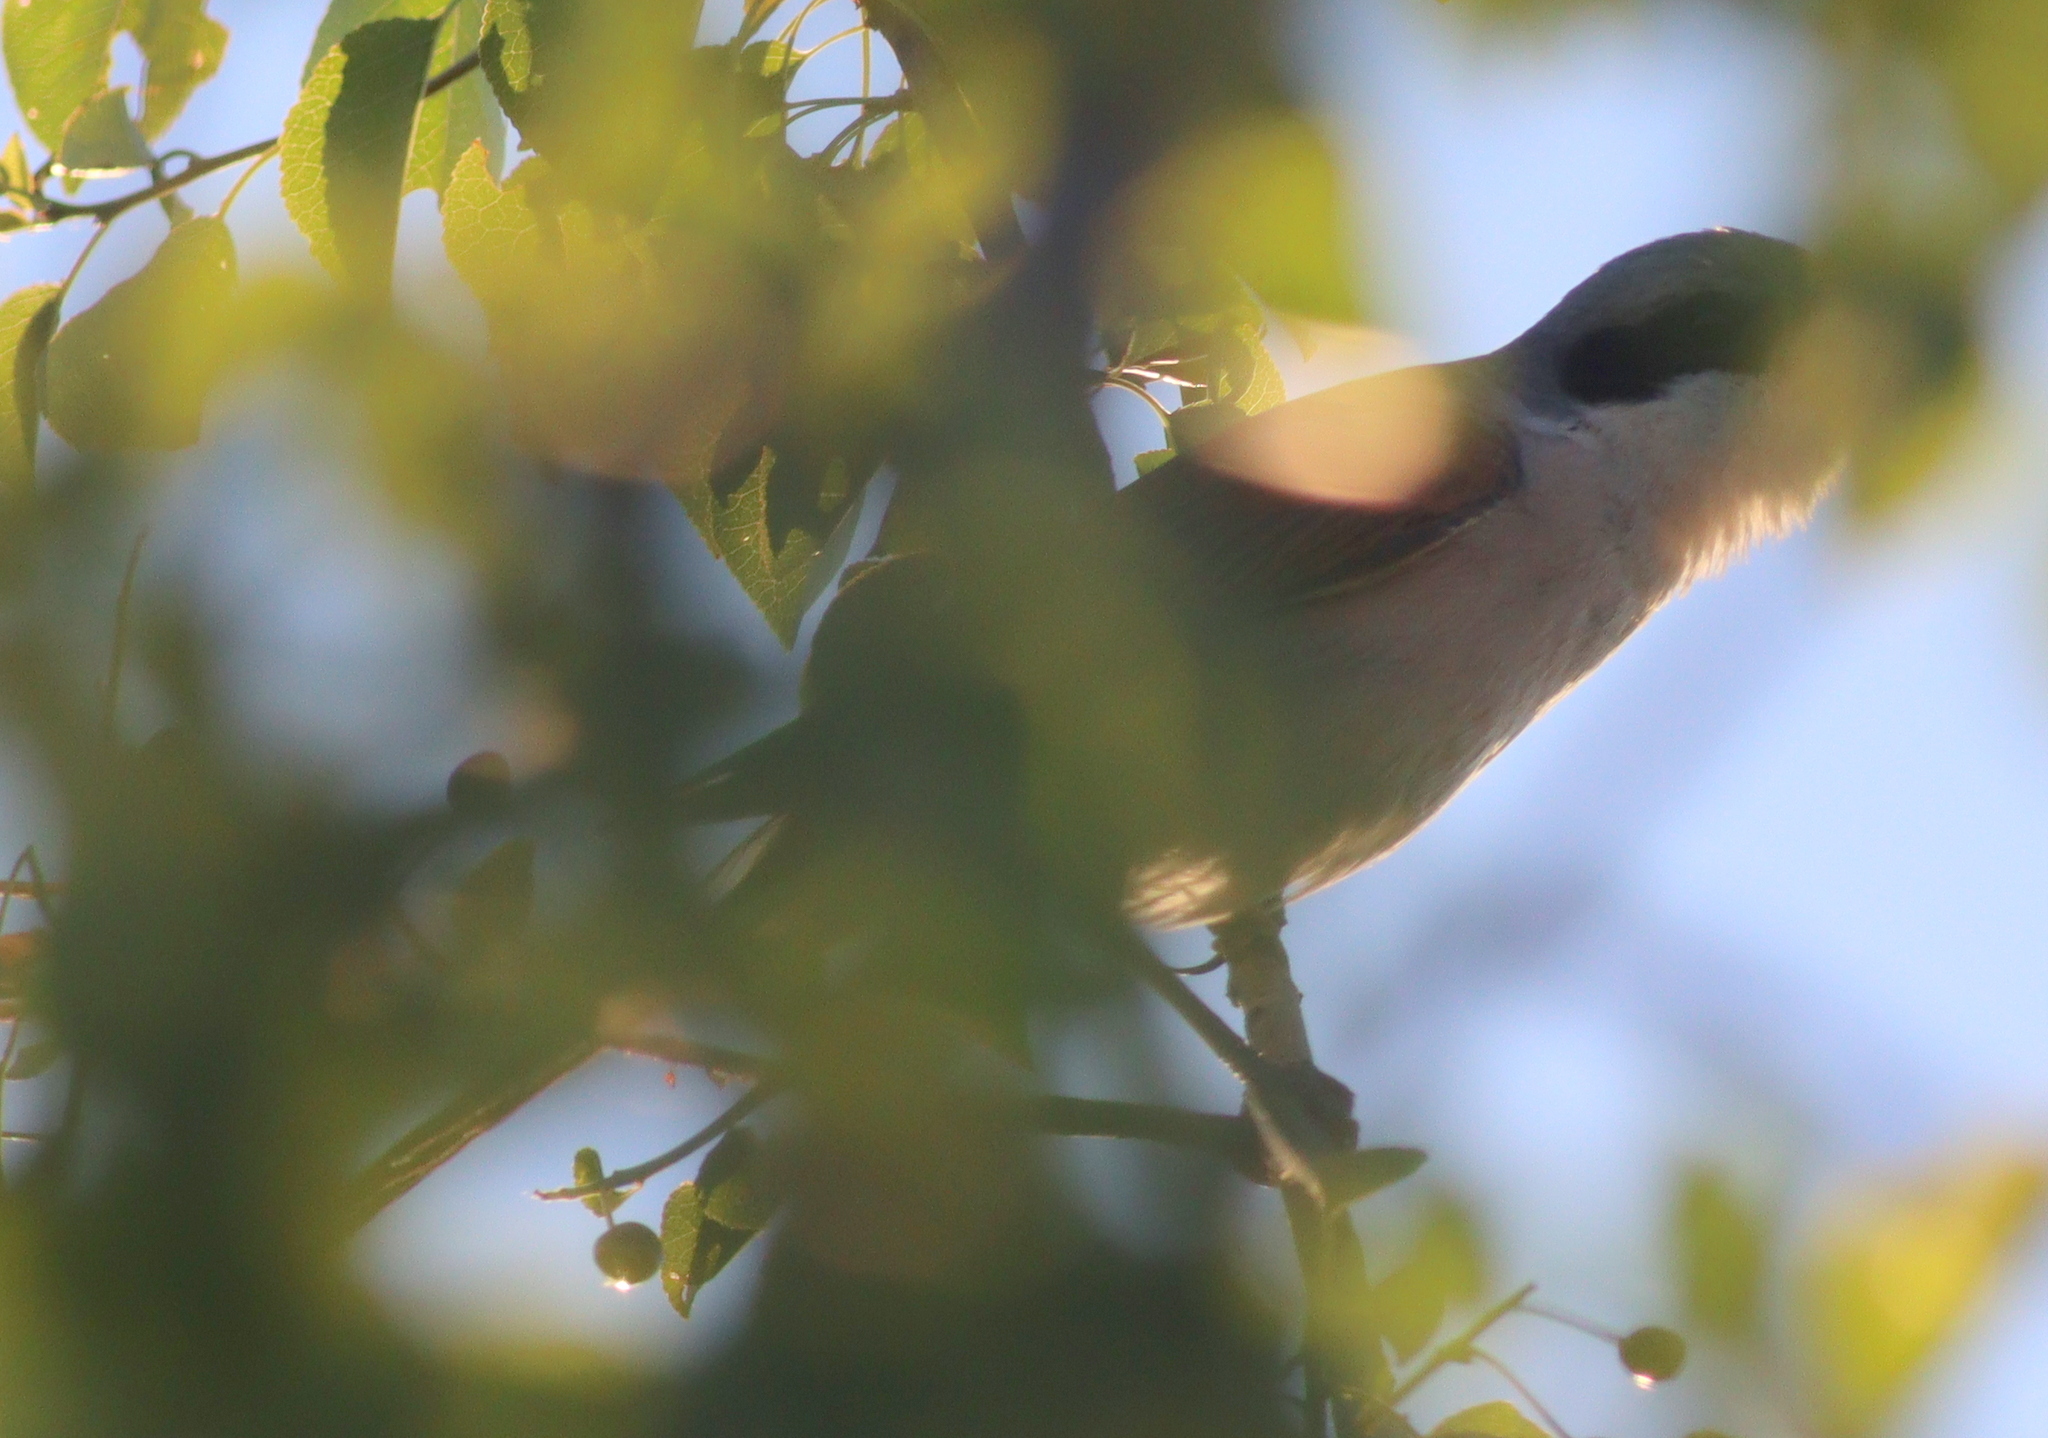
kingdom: Animalia
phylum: Chordata
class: Aves
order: Passeriformes
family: Laniidae
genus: Lanius
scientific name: Lanius collurio
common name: Red-backed shrike
